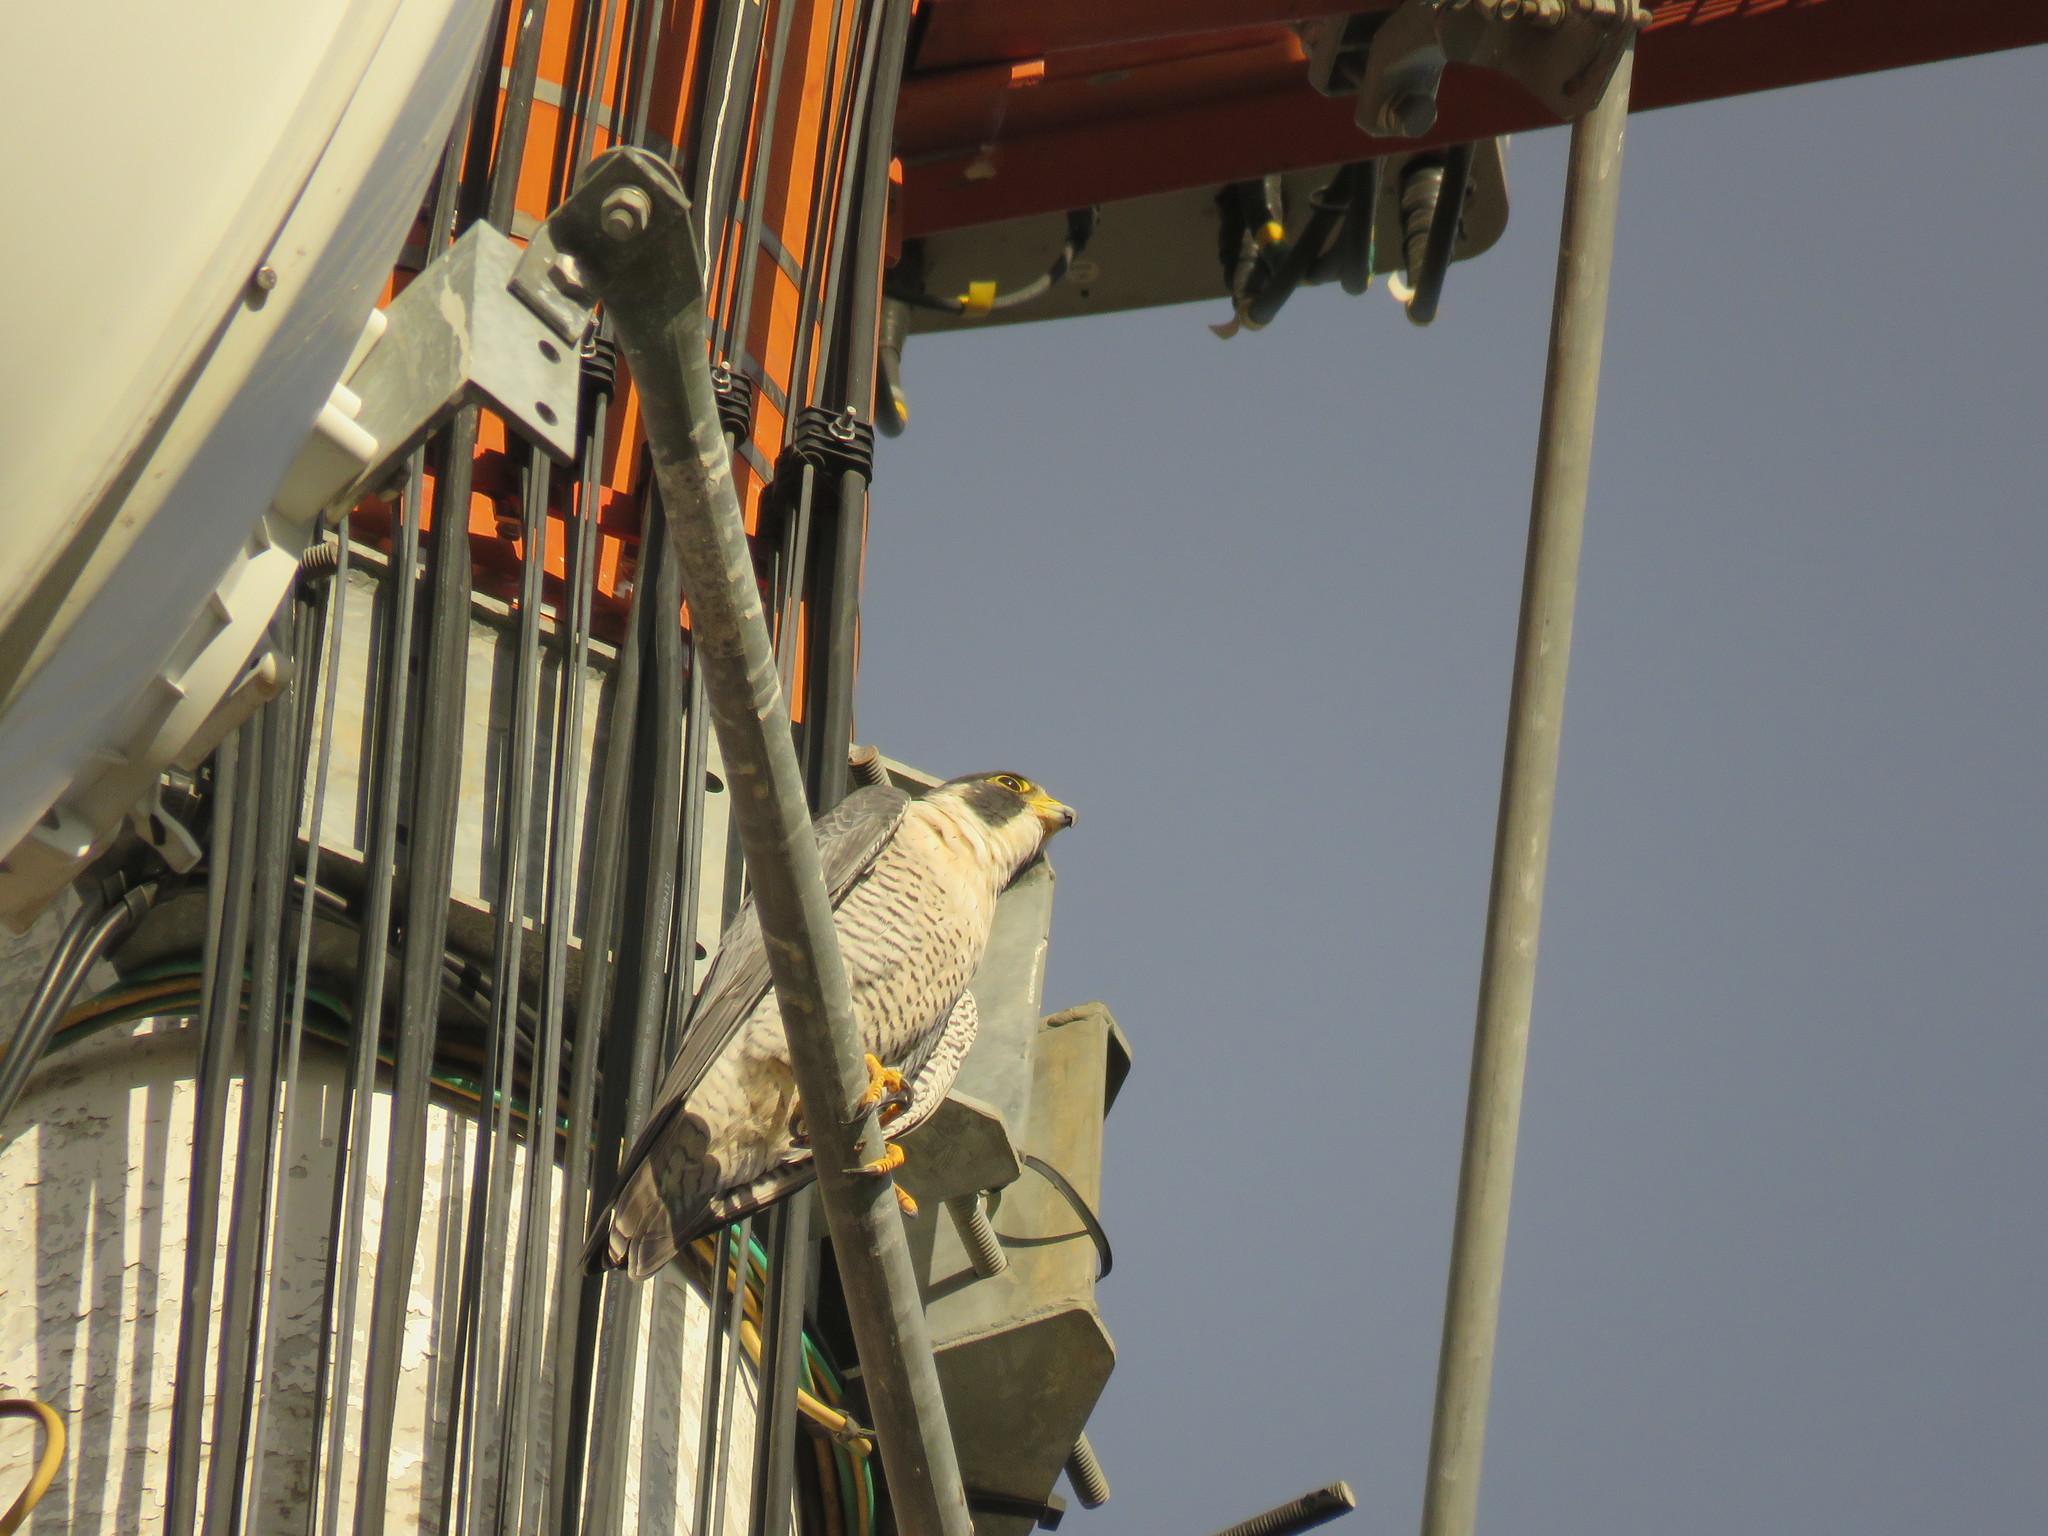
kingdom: Animalia
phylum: Chordata
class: Aves
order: Falconiformes
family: Falconidae
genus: Falco
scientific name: Falco peregrinus
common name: Peregrine falcon
